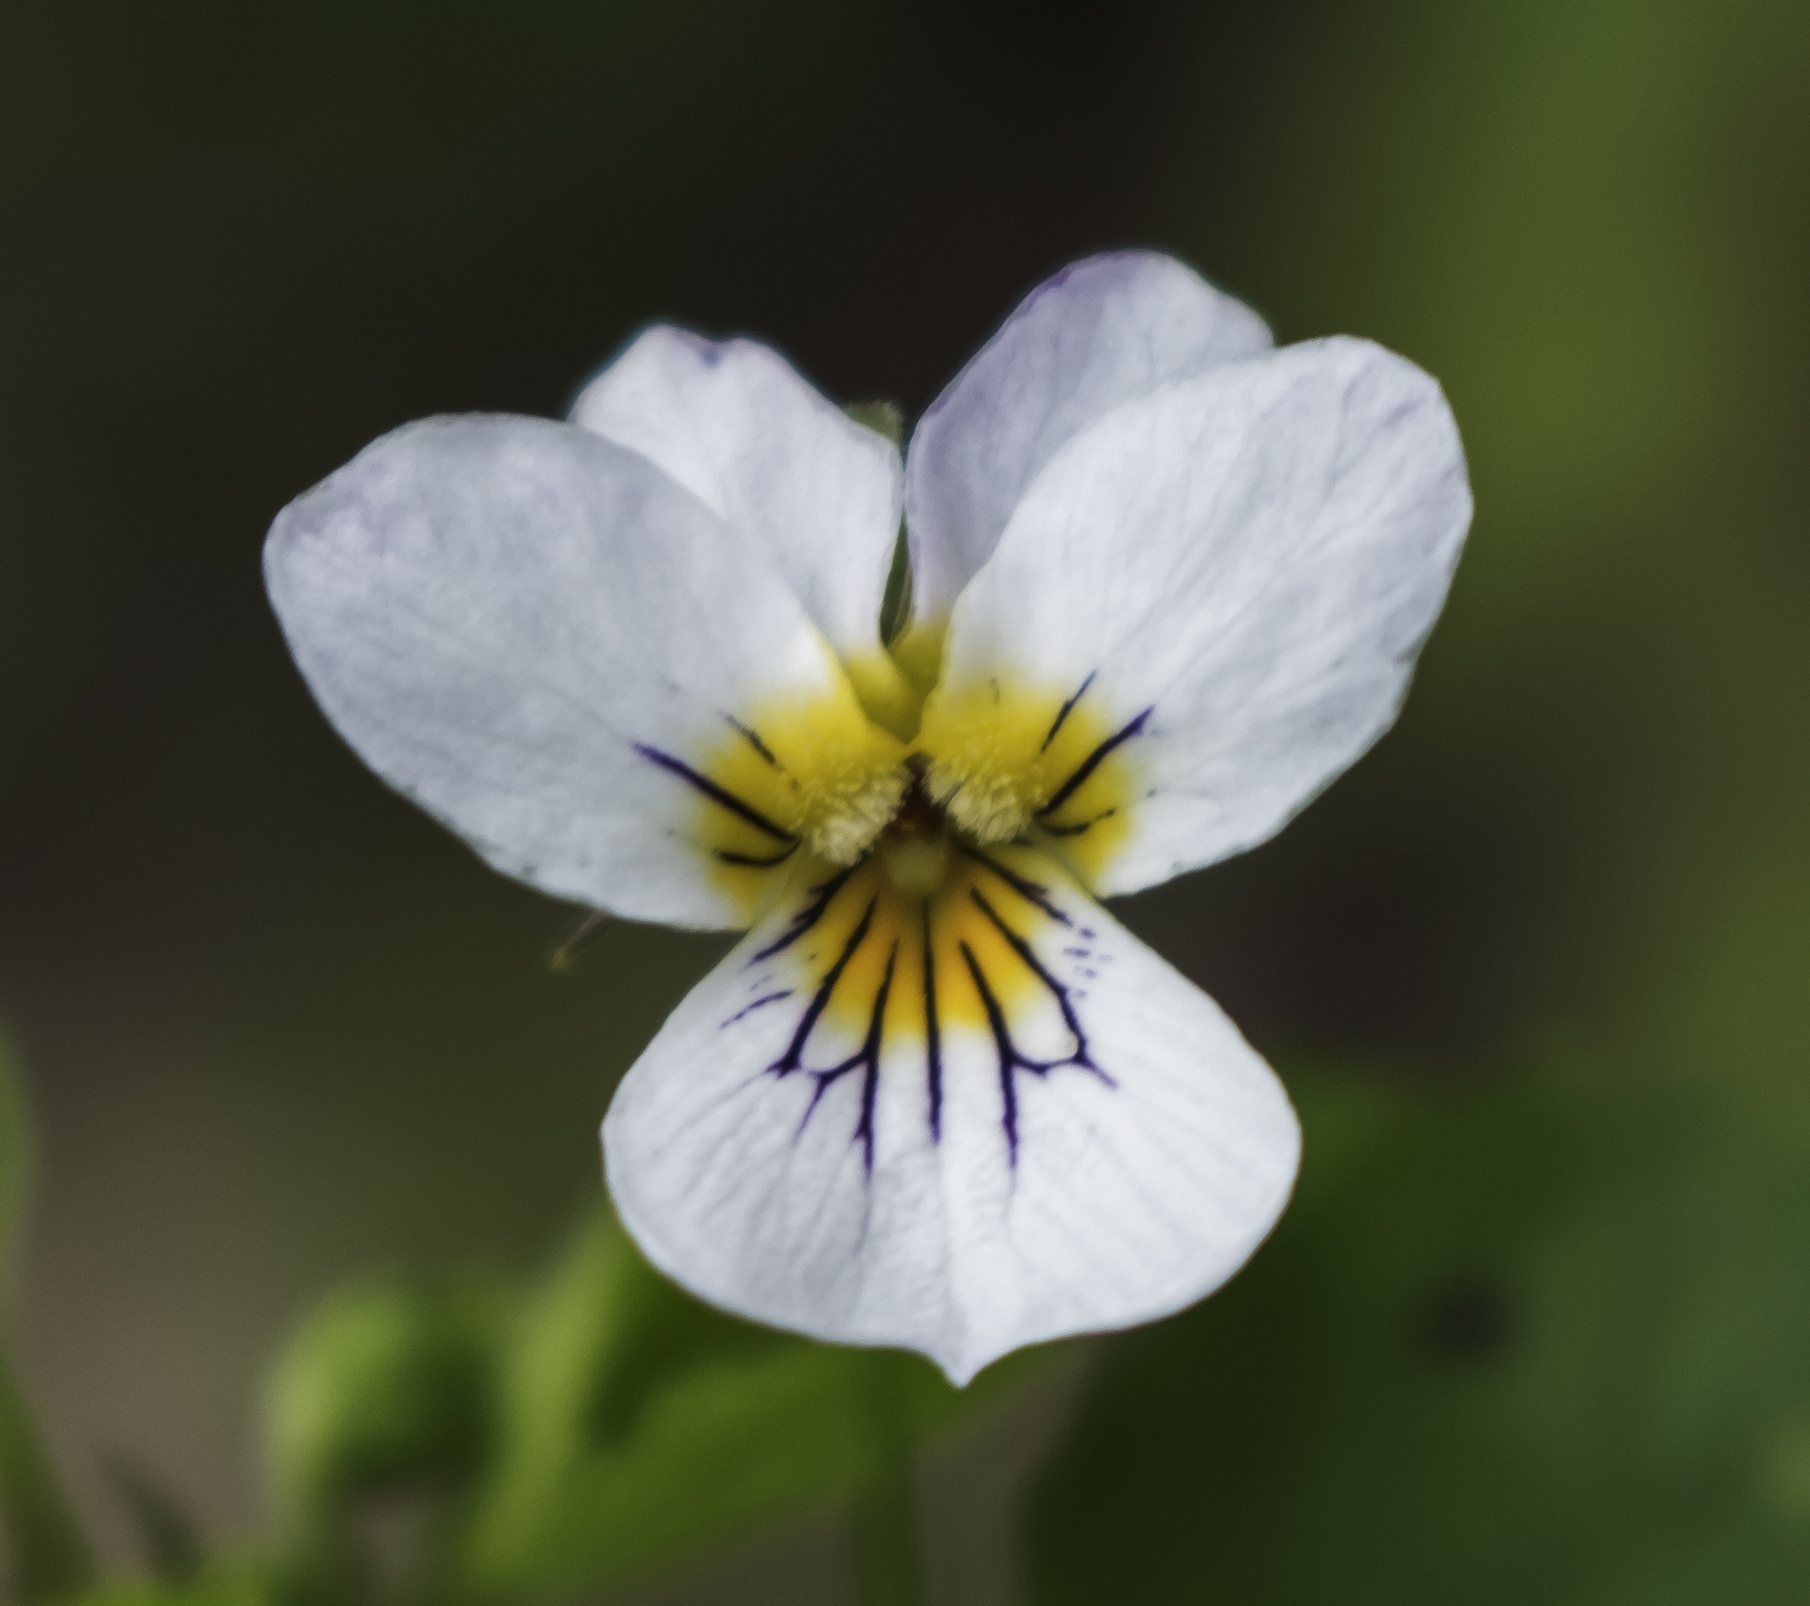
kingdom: Plantae
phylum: Tracheophyta
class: Magnoliopsida
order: Malpighiales
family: Violaceae
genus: Viola
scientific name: Viola canadensis
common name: Canada violet
